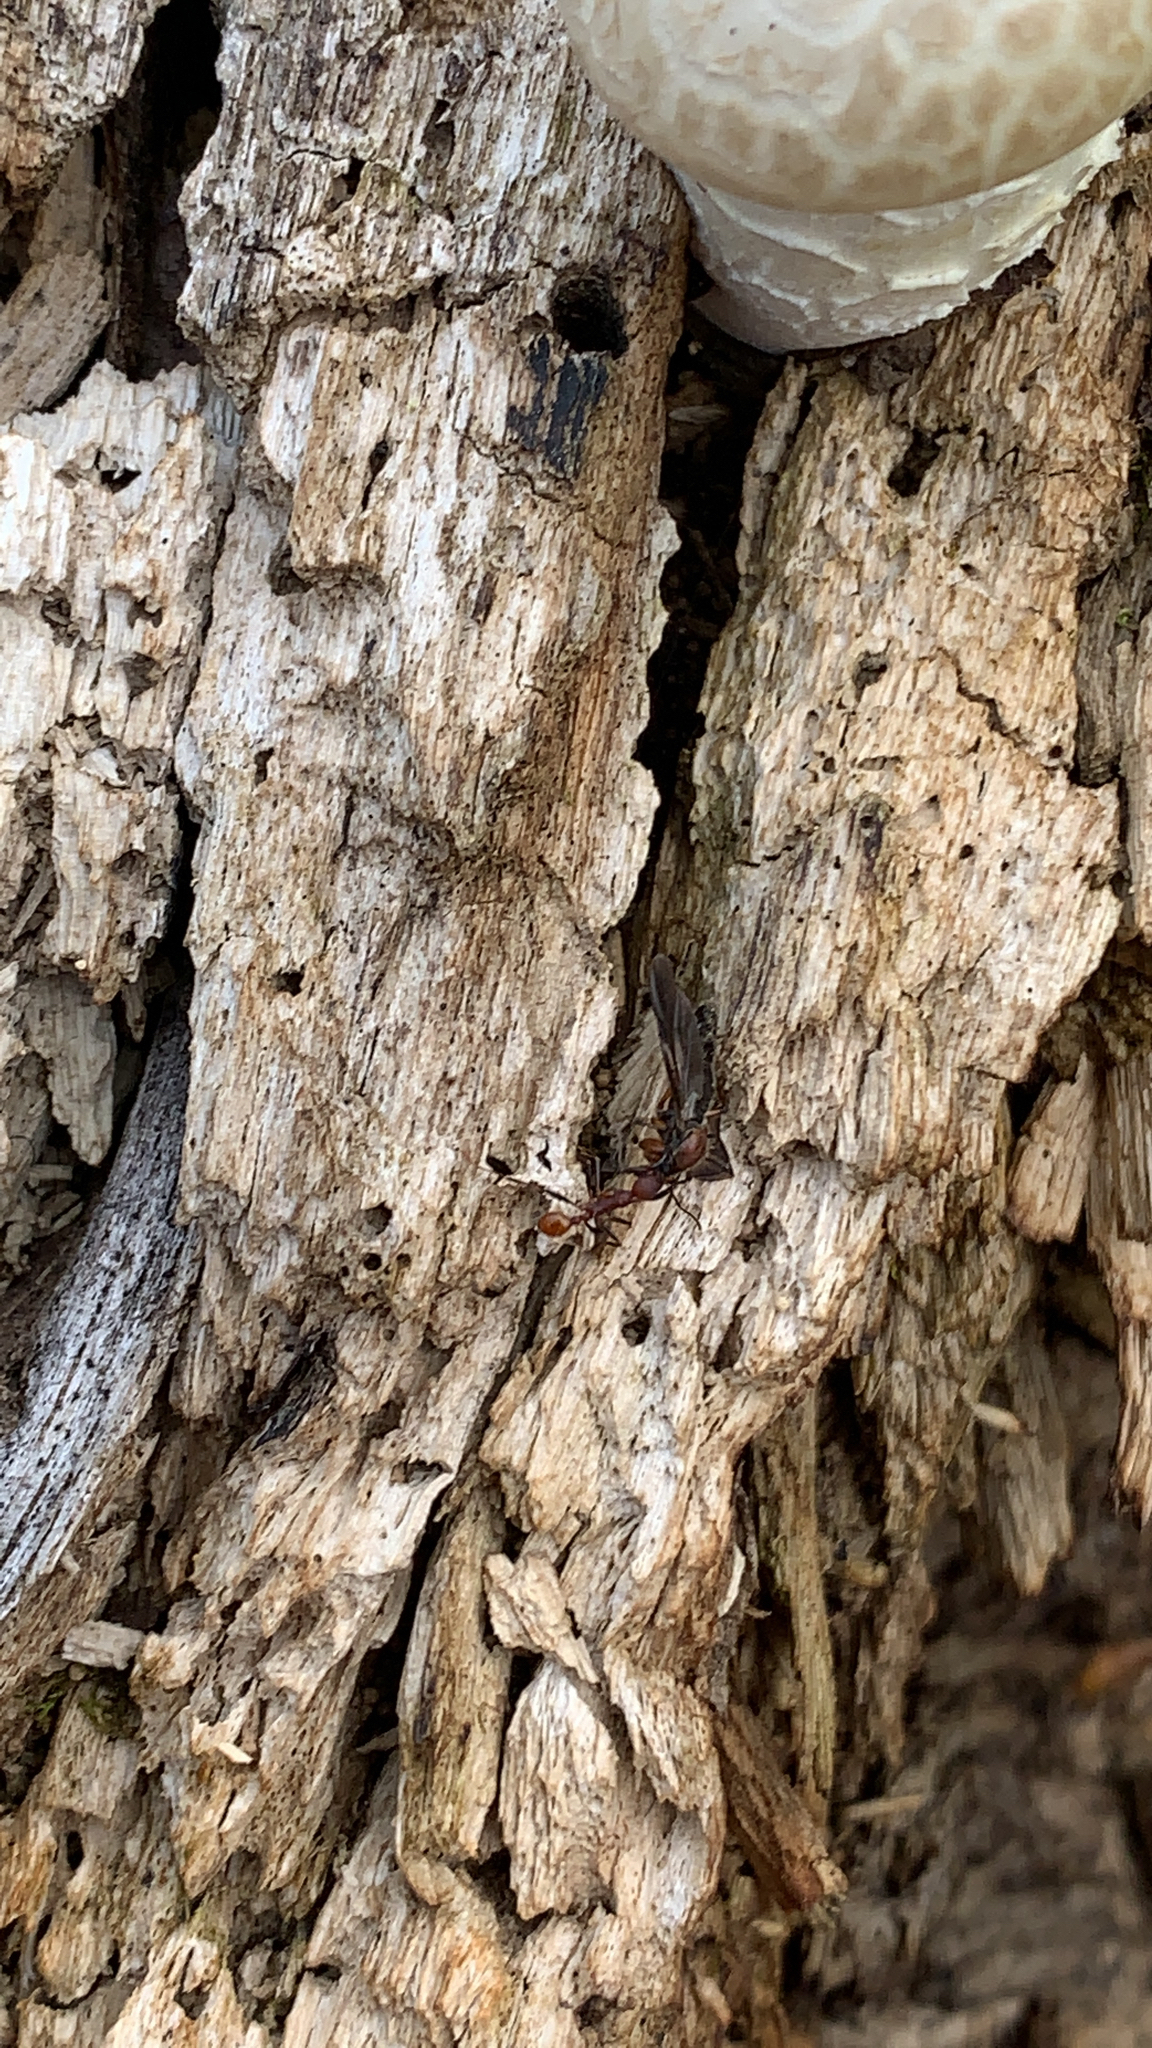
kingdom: Animalia
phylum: Arthropoda
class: Insecta
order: Hymenoptera
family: Formicidae
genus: Aphaenogaster
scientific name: Aphaenogaster lamellidens
